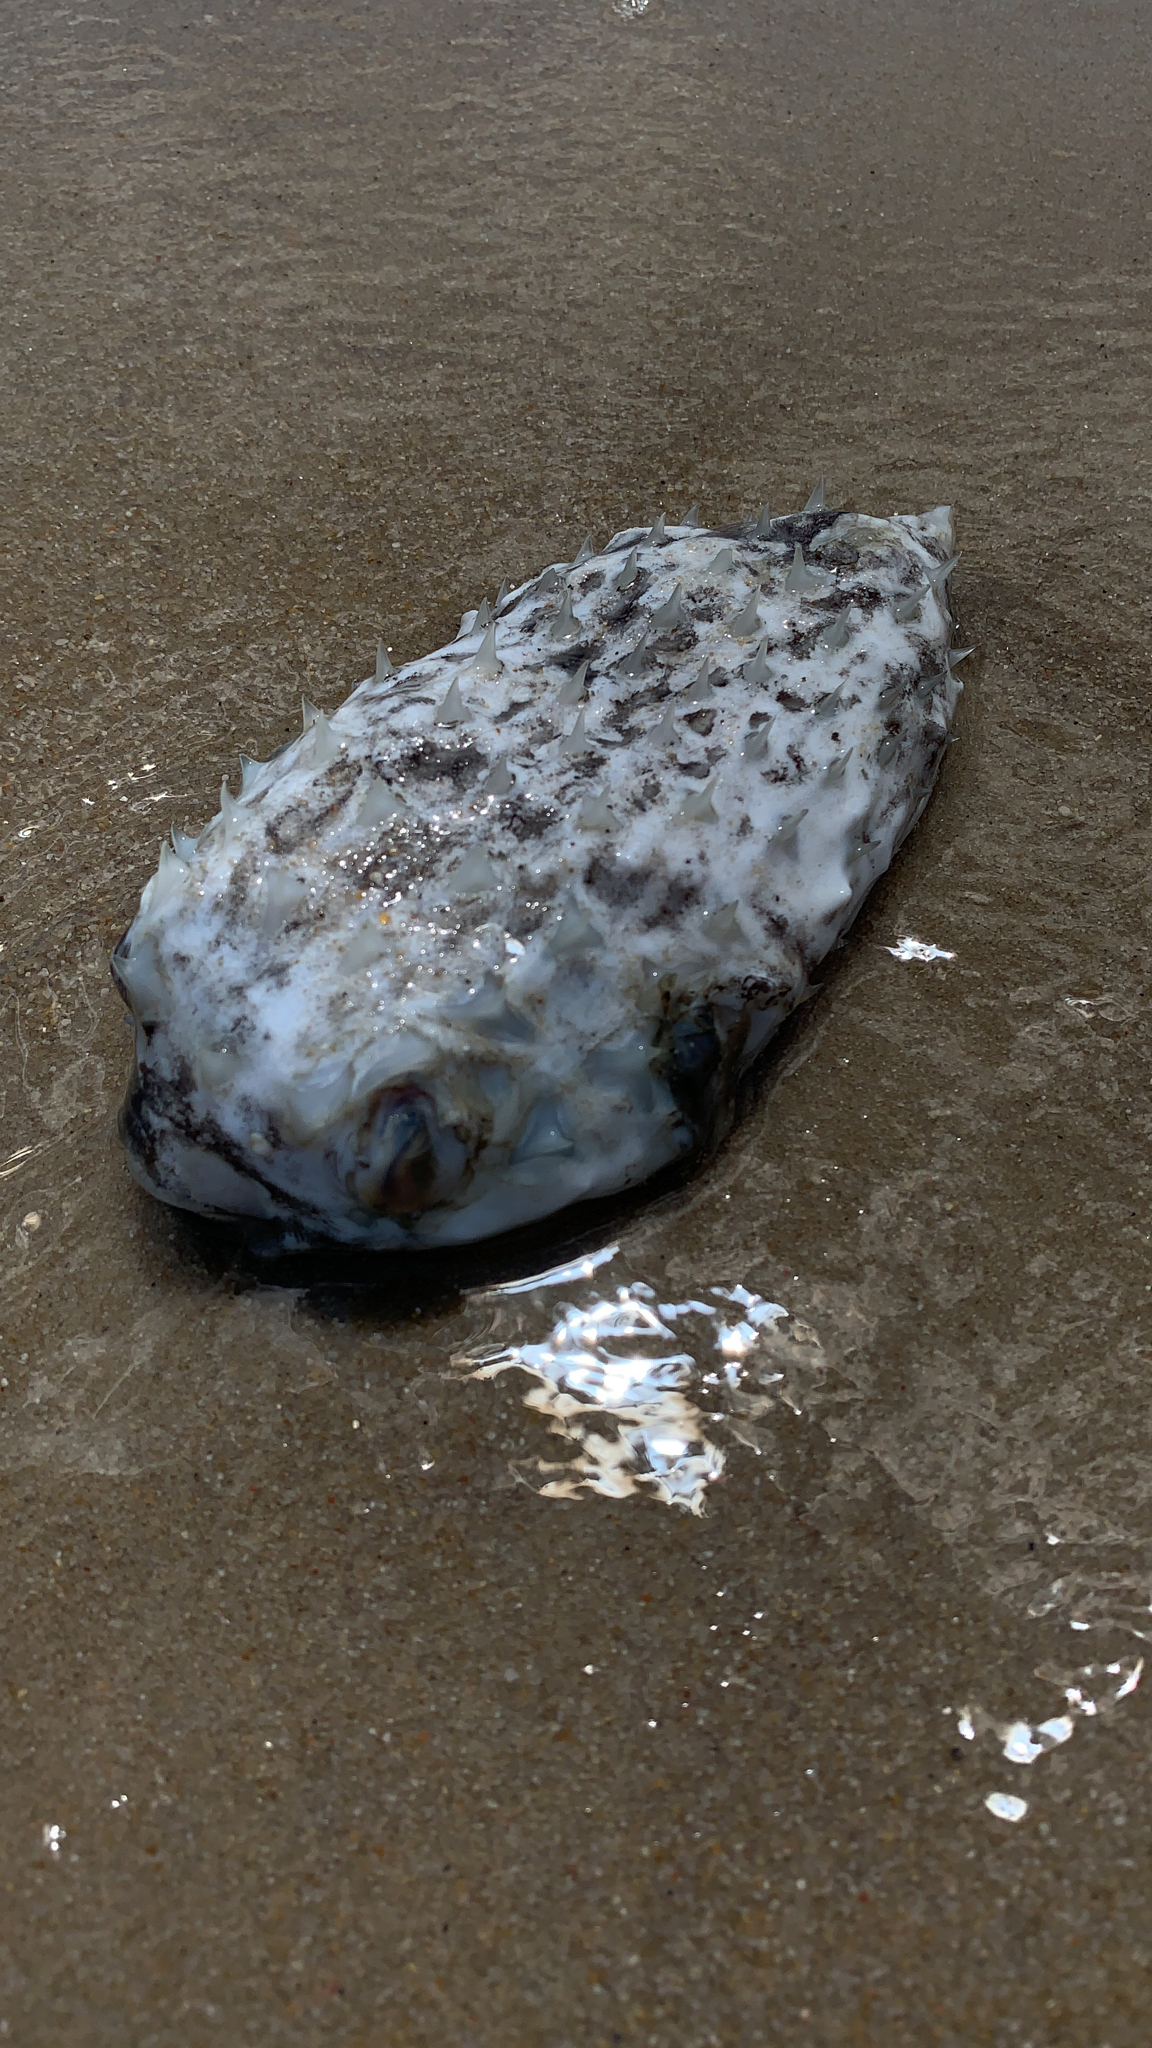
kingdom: Animalia
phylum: Chordata
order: Tetraodontiformes
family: Diodontidae
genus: Chilomycterus
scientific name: Chilomycterus schoepfii
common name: Striped burrfish
